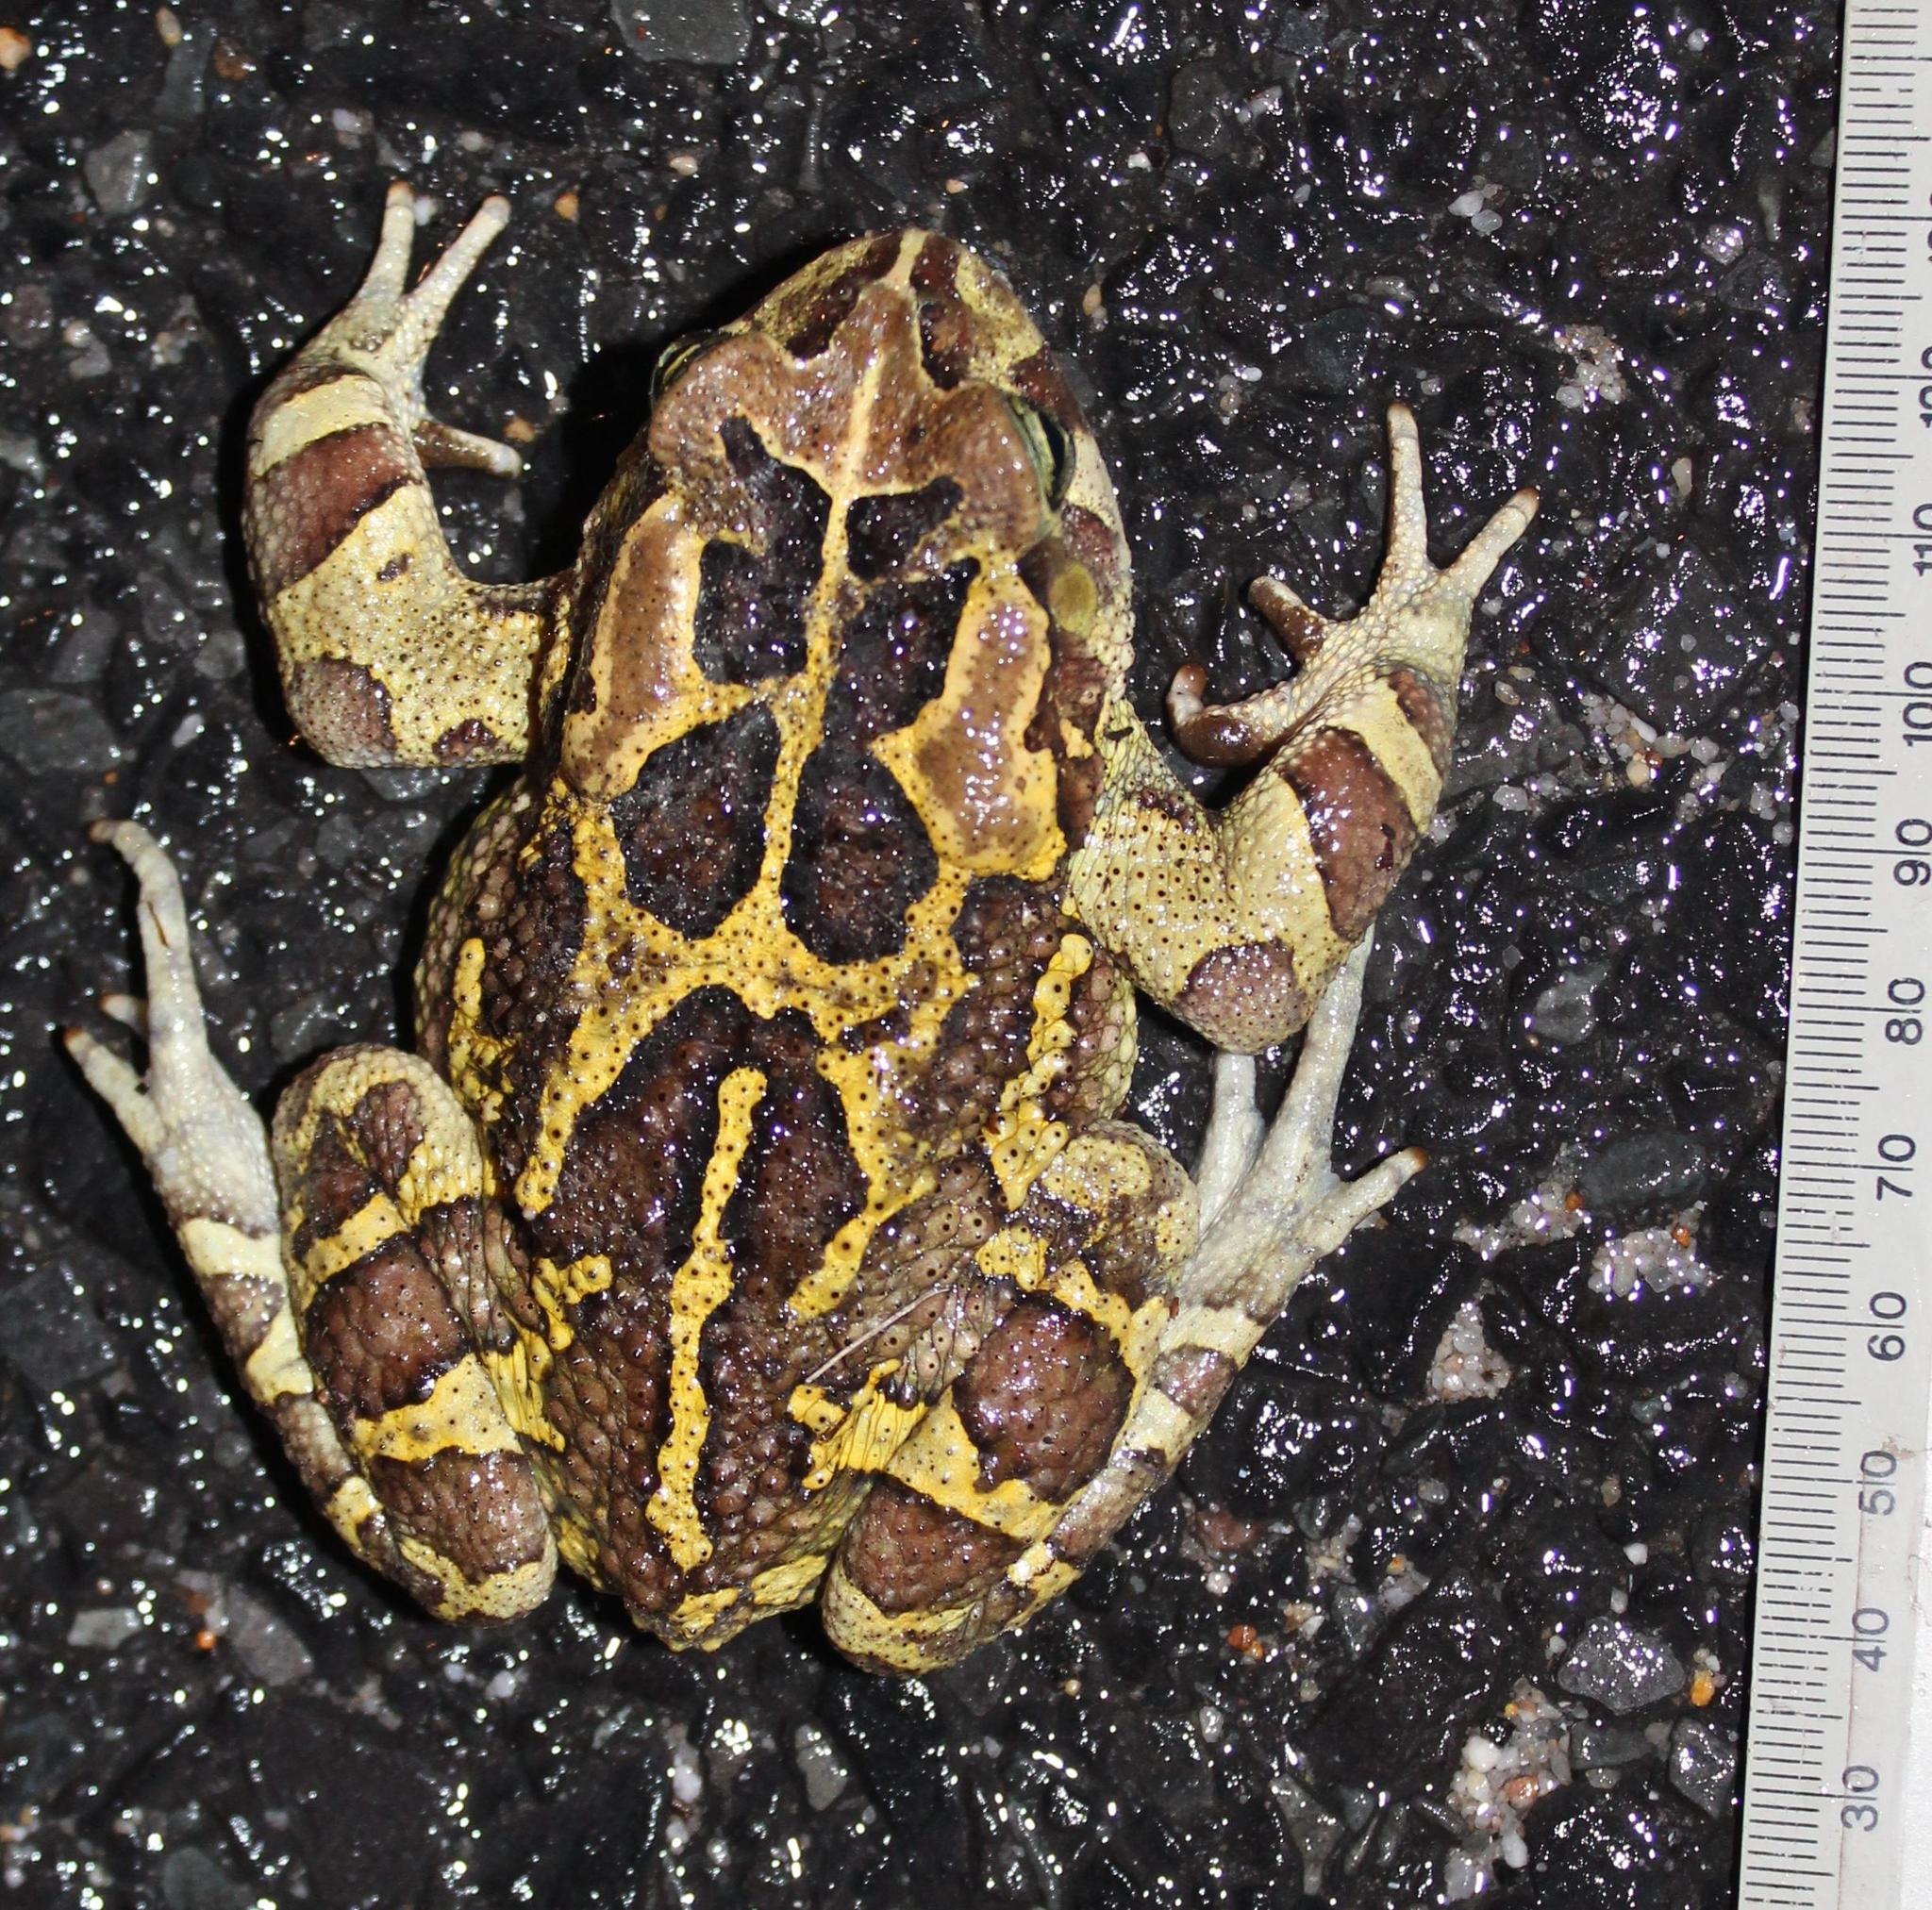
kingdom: Animalia
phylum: Chordata
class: Amphibia
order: Anura
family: Bufonidae
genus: Sclerophrys
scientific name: Sclerophrys pantherina
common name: Panther toad
